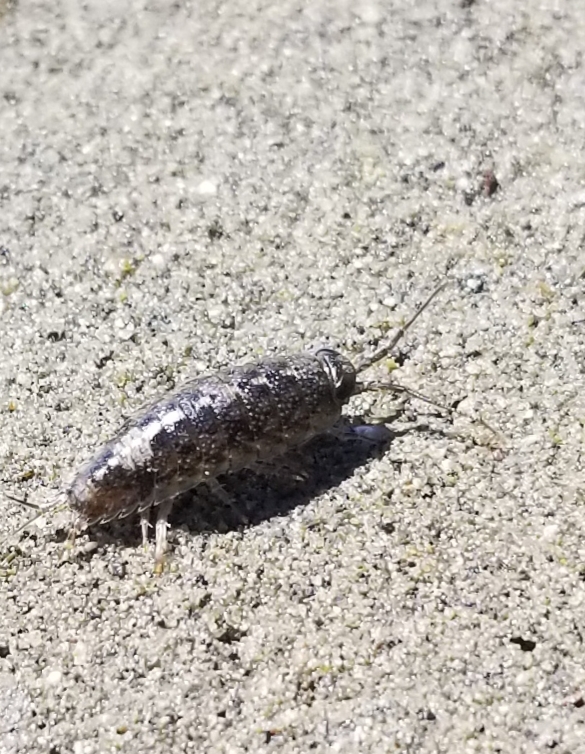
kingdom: Animalia
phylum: Arthropoda
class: Malacostraca
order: Isopoda
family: Ligiidae
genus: Ligia
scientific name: Ligia occidentalis
